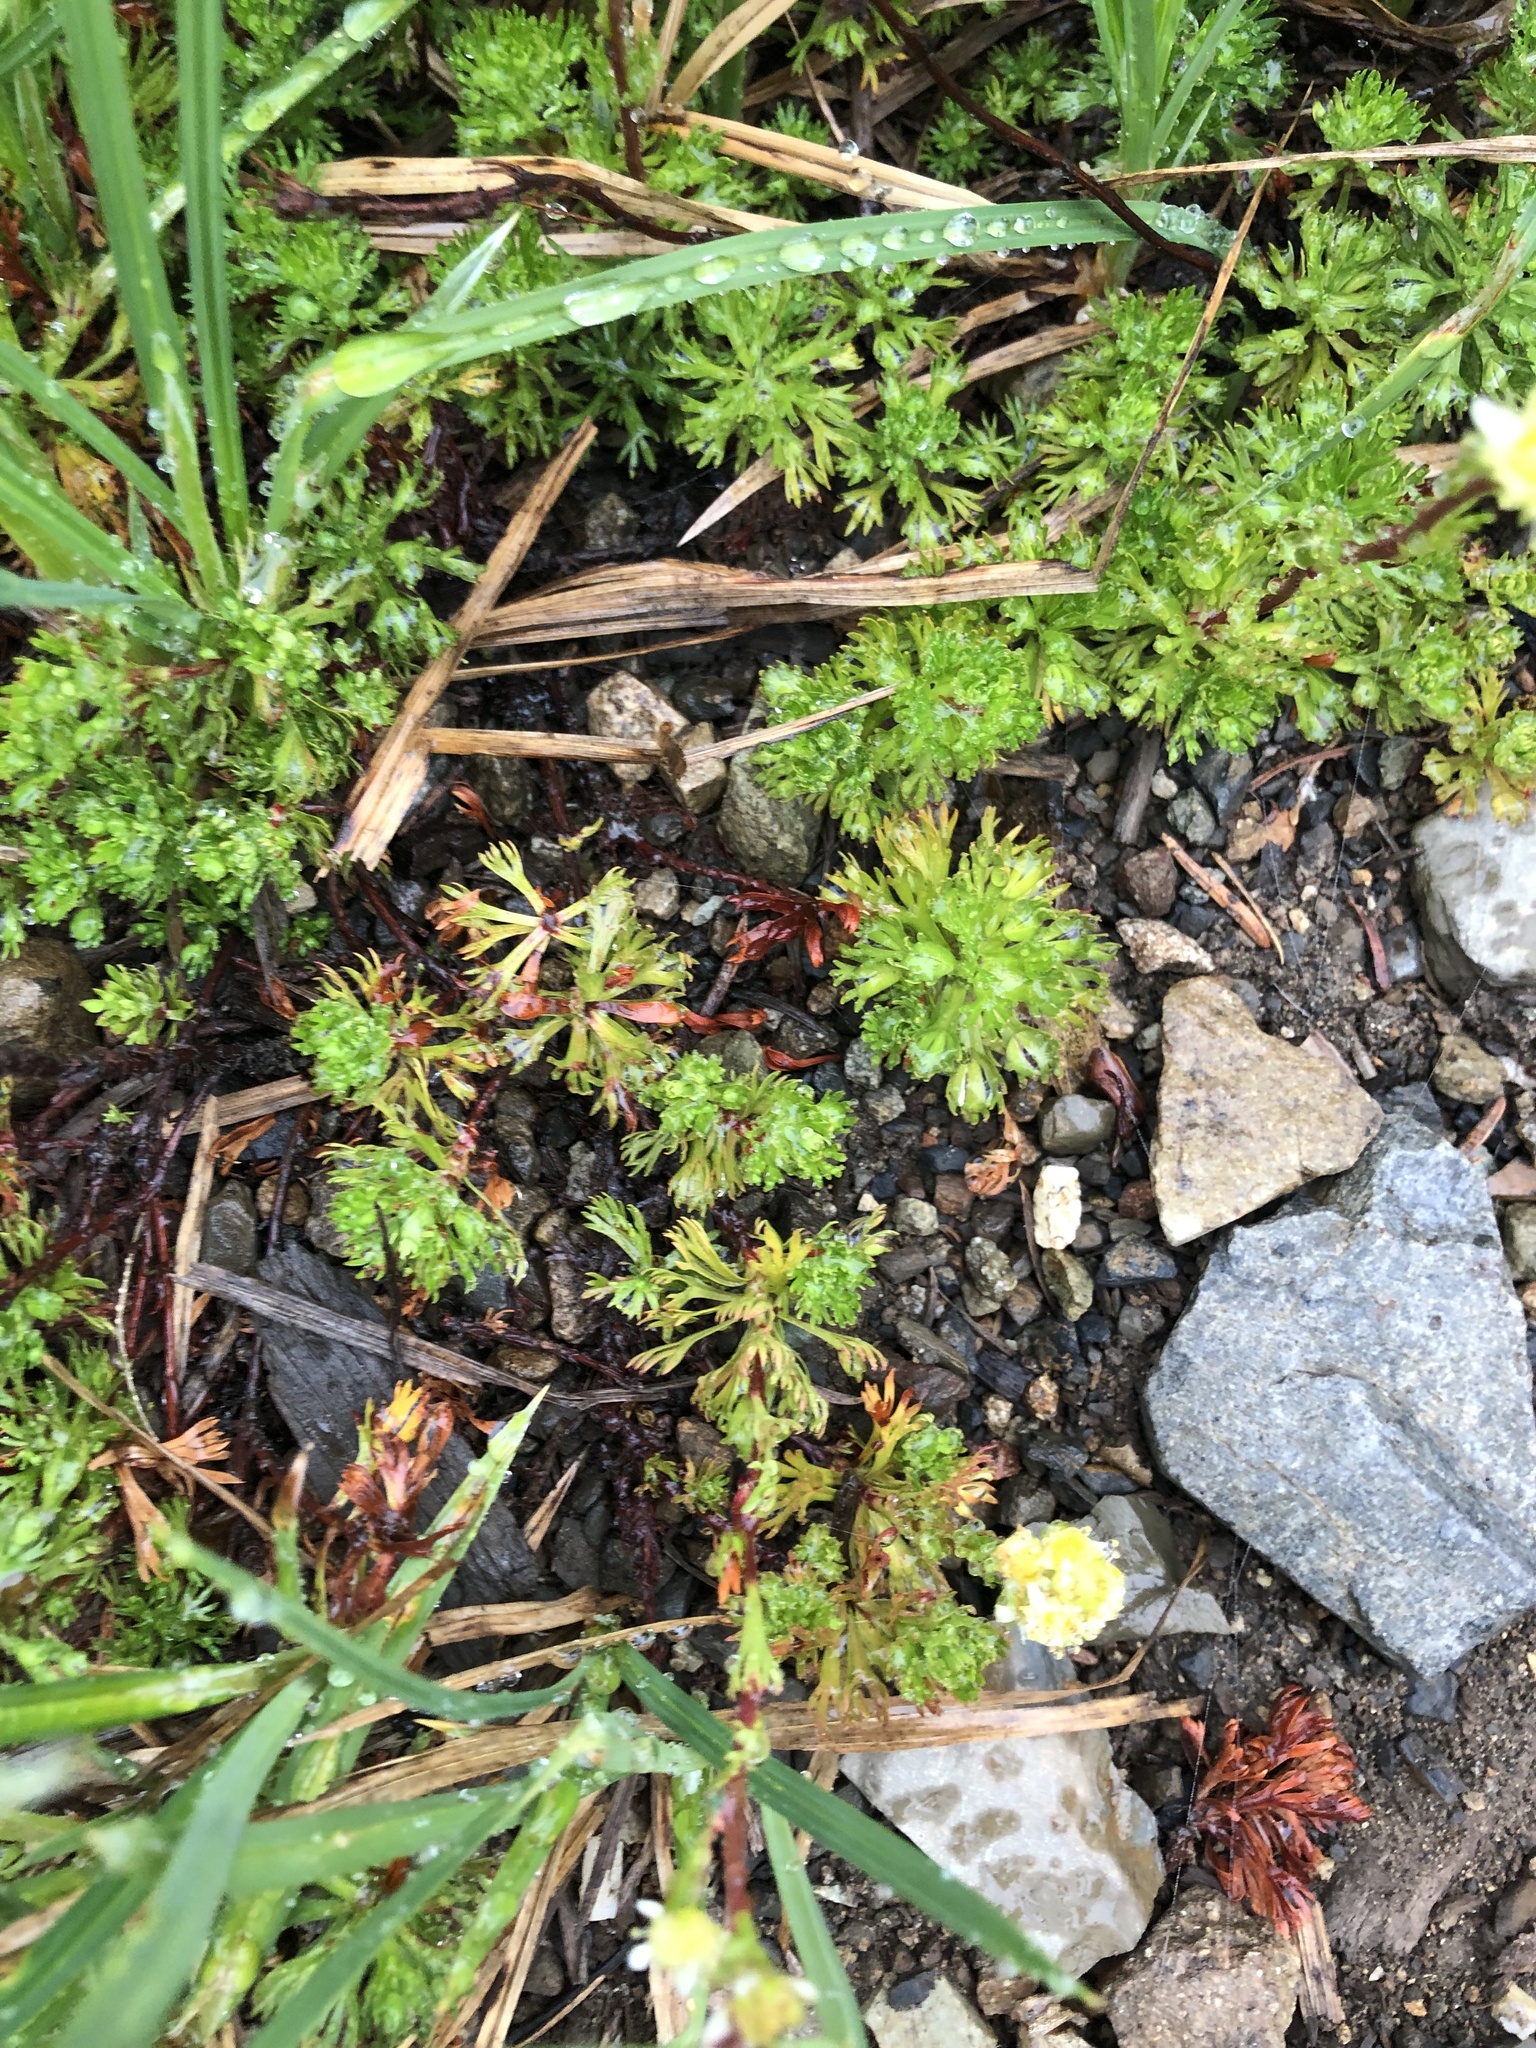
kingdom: Plantae
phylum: Tracheophyta
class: Magnoliopsida
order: Rosales
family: Rosaceae
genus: Luetkea
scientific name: Luetkea pectinata
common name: Partridgefoot
